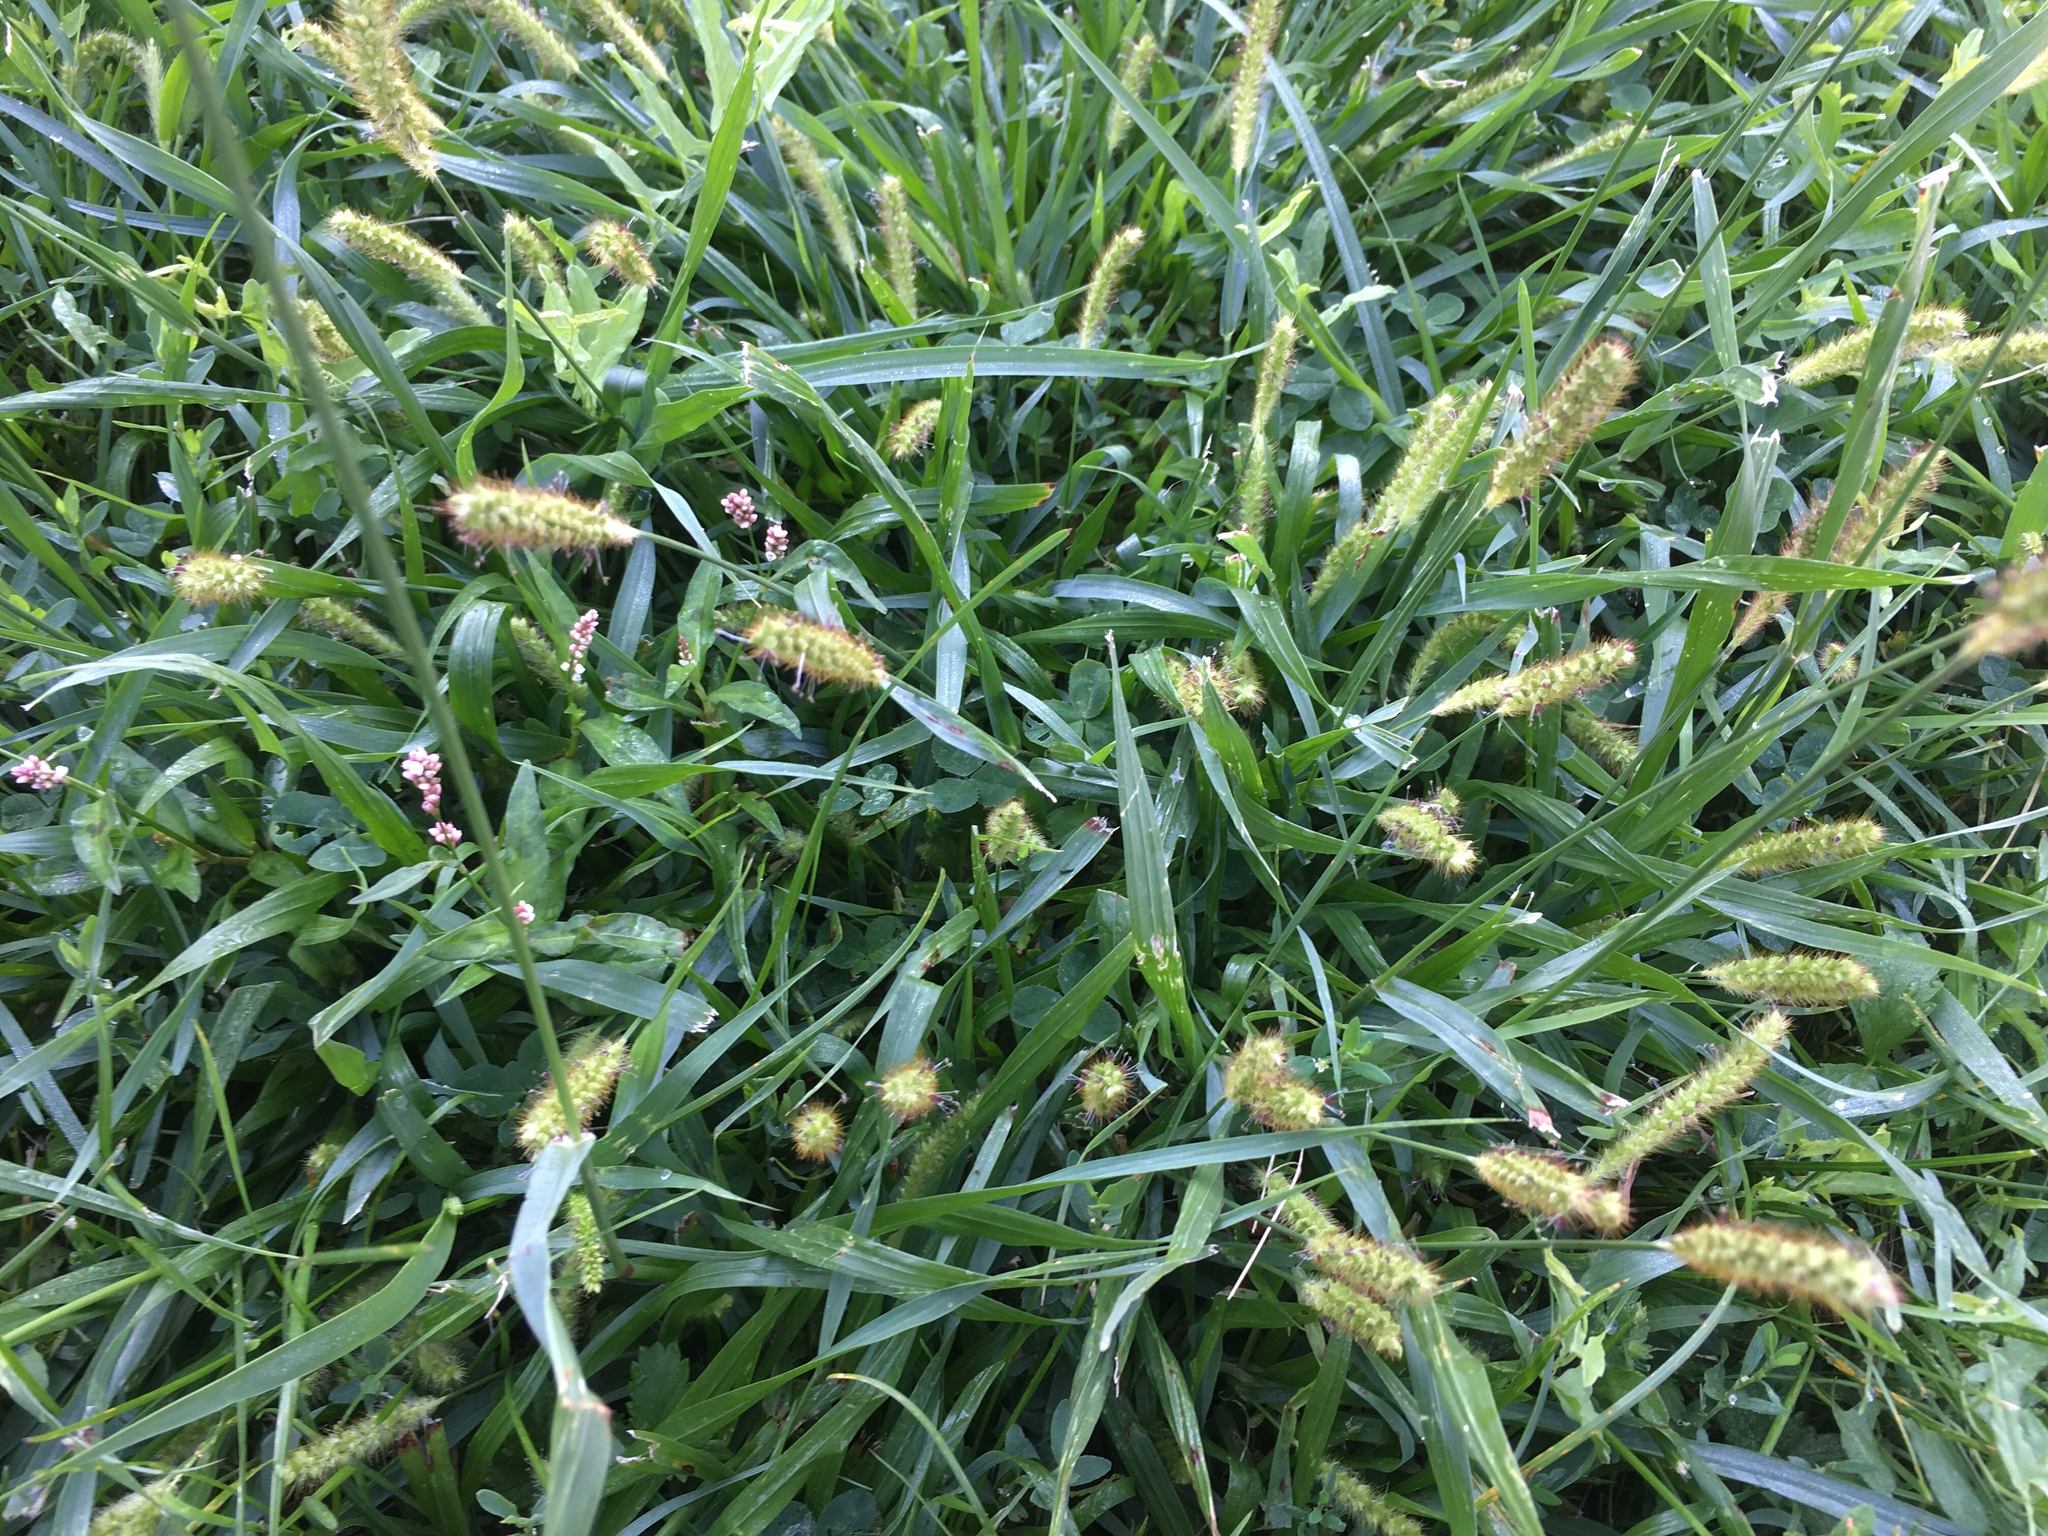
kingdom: Plantae
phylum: Tracheophyta
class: Liliopsida
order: Poales
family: Poaceae
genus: Setaria
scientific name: Setaria pumila
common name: Yellow bristle-grass
